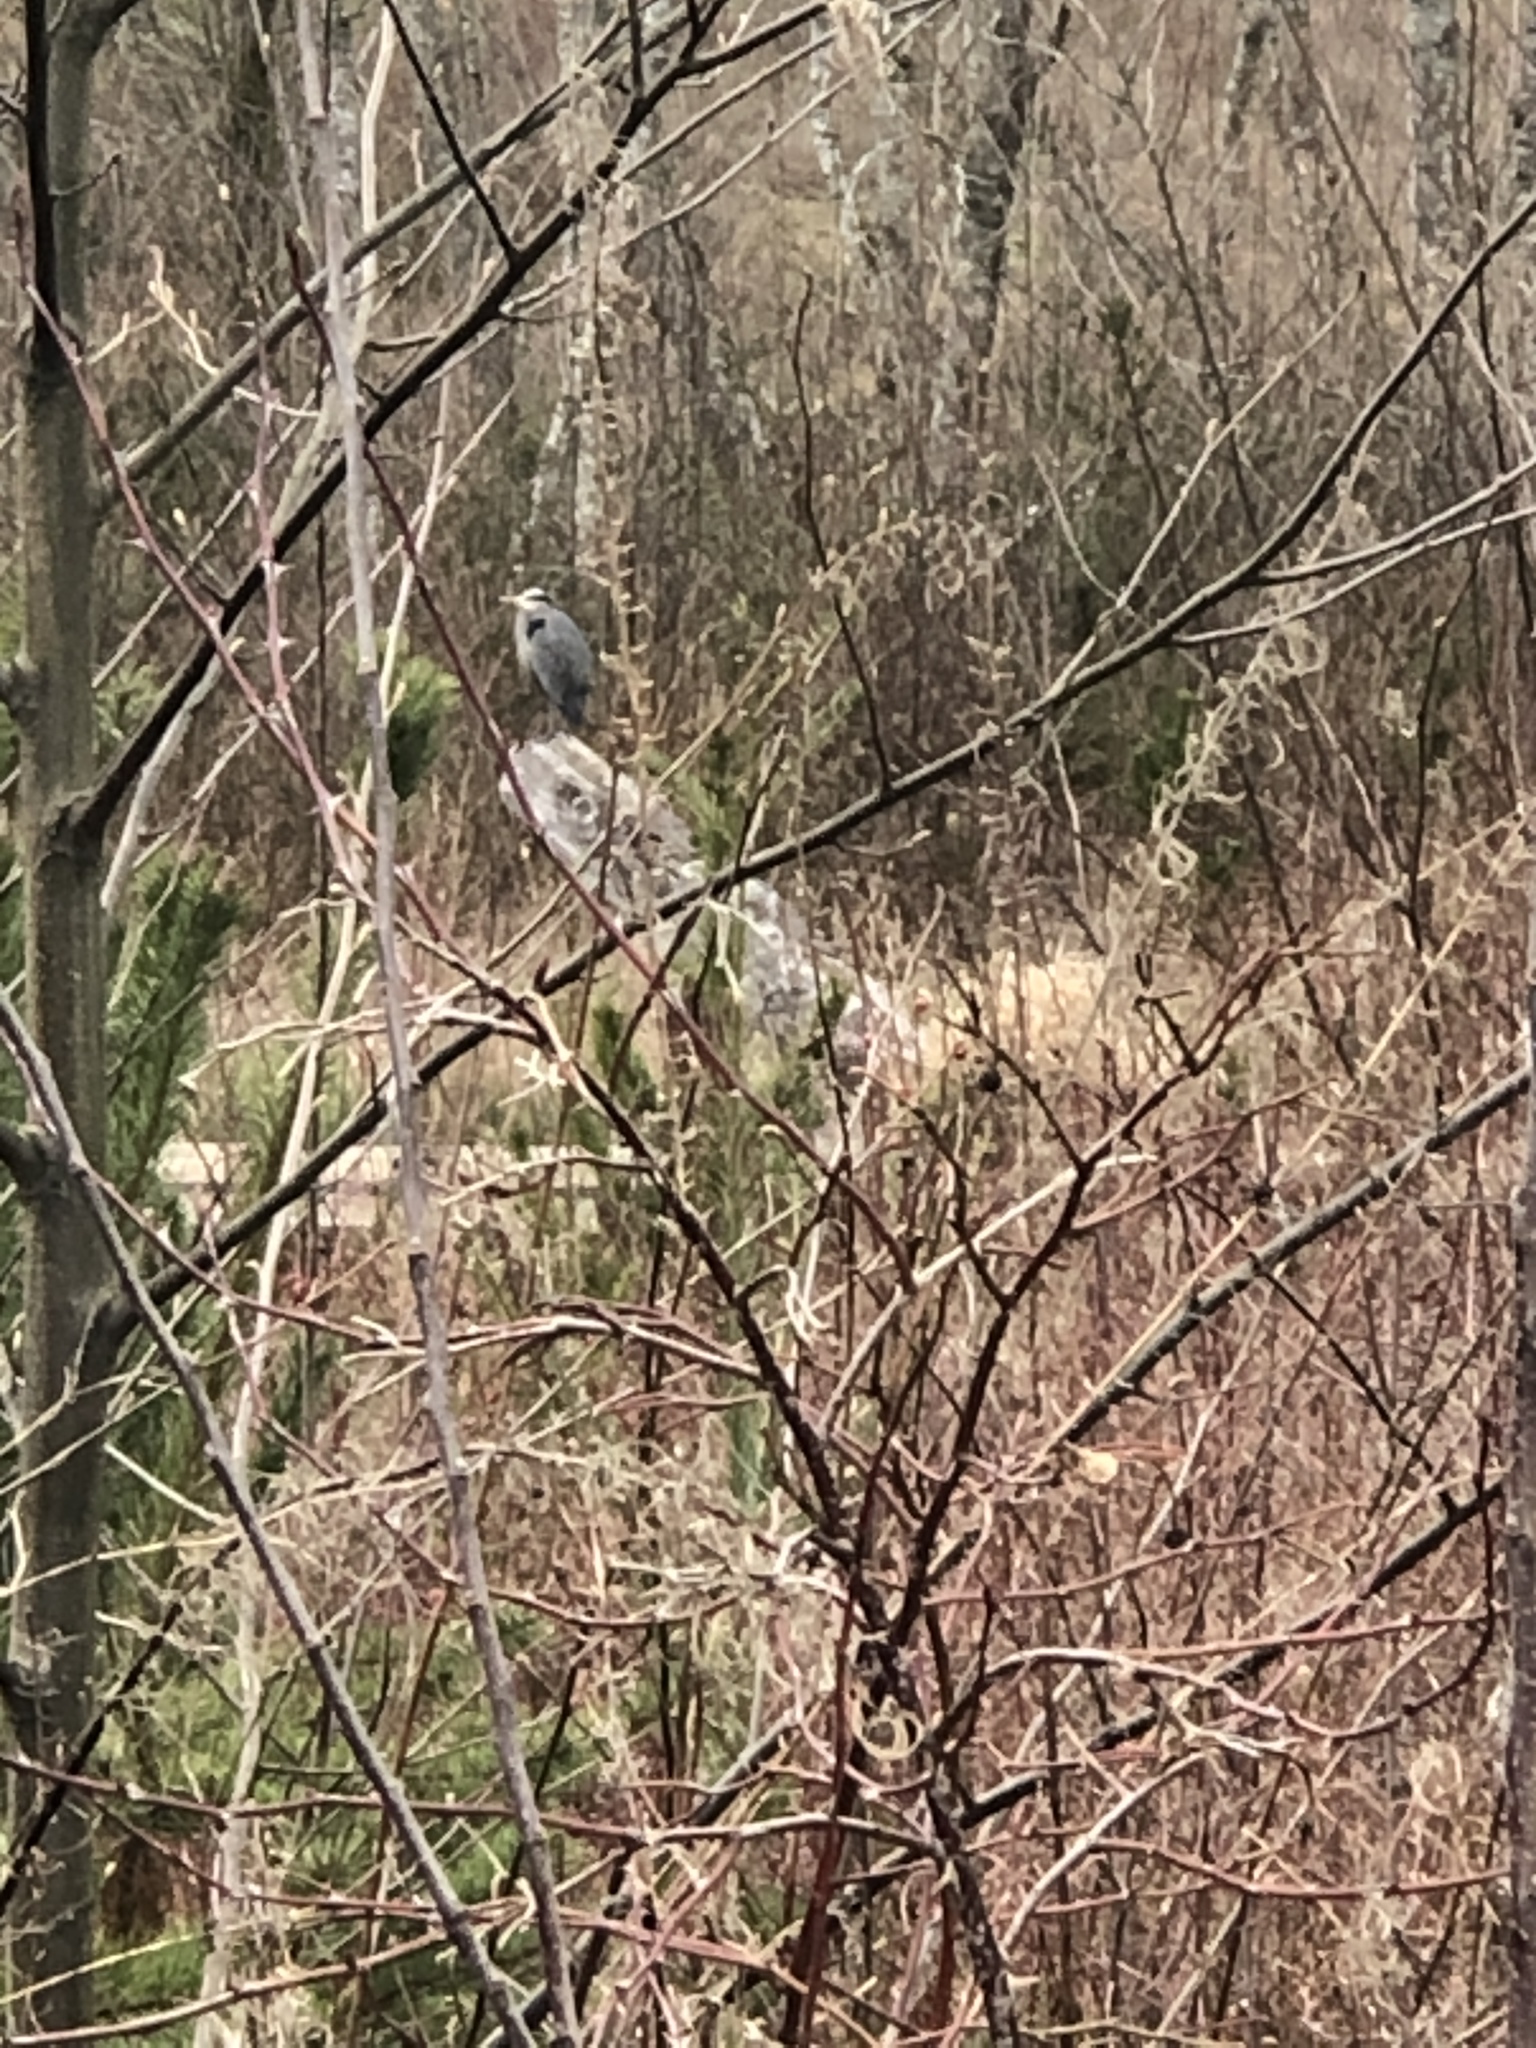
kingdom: Animalia
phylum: Chordata
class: Aves
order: Pelecaniformes
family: Ardeidae
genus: Ardea
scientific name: Ardea herodias
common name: Great blue heron
